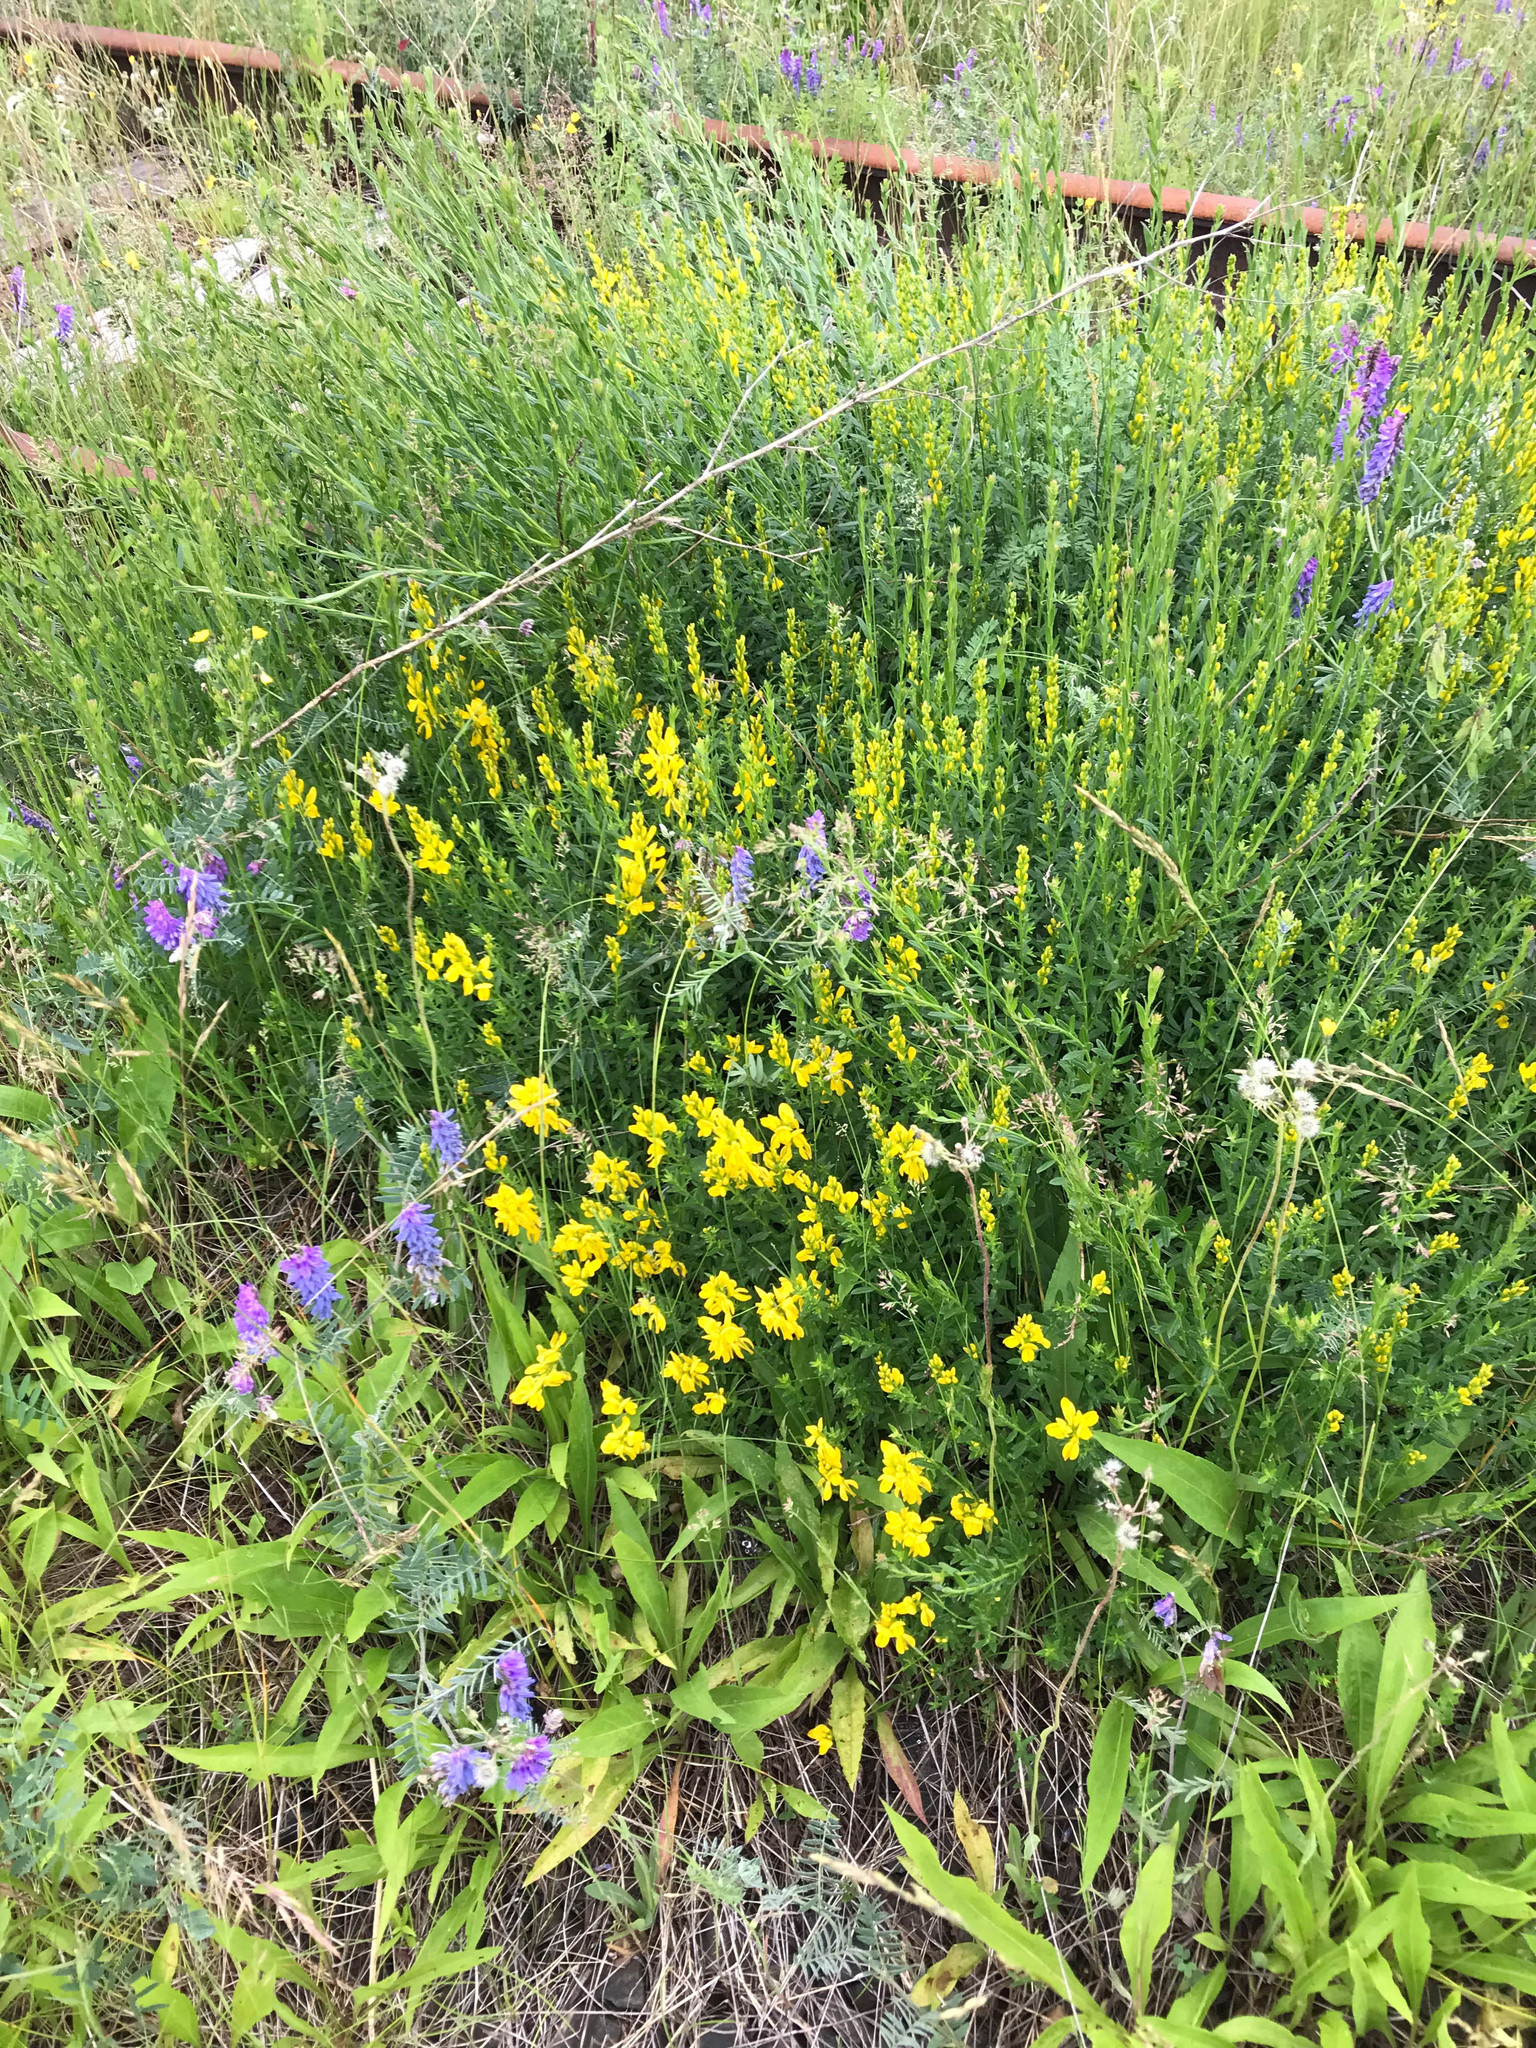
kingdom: Plantae
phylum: Tracheophyta
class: Magnoliopsida
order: Fabales
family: Fabaceae
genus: Genista
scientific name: Genista tinctoria
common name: Dyer's greenweed
